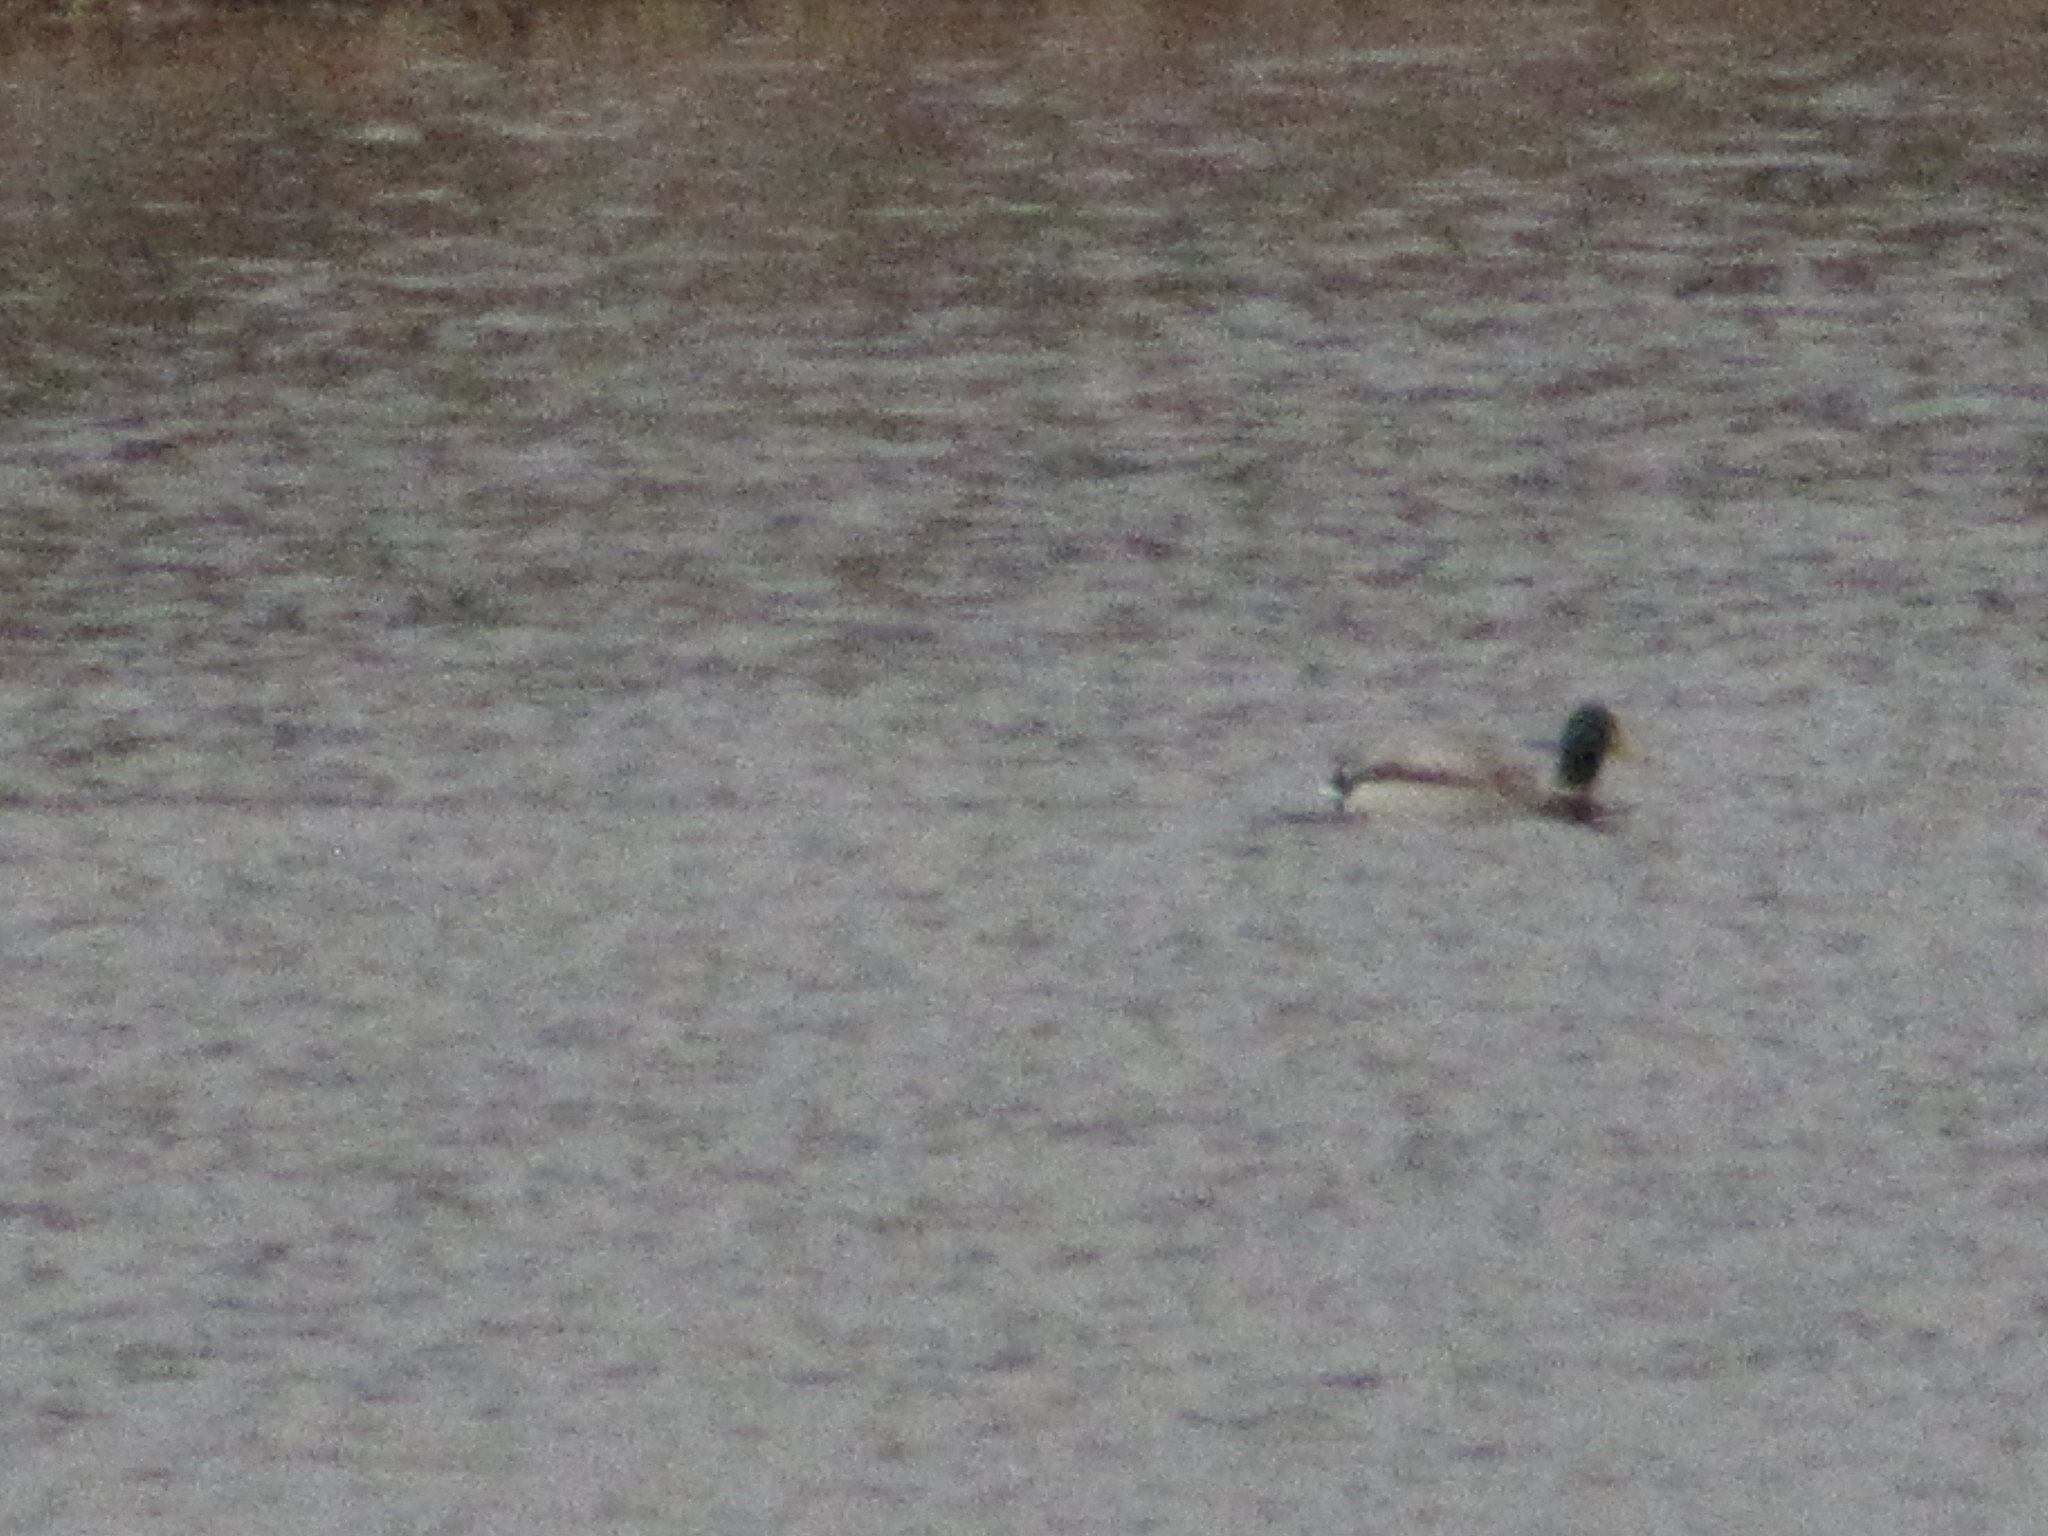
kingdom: Animalia
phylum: Chordata
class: Aves
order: Anseriformes
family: Anatidae
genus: Anas
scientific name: Anas platyrhynchos
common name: Mallard
